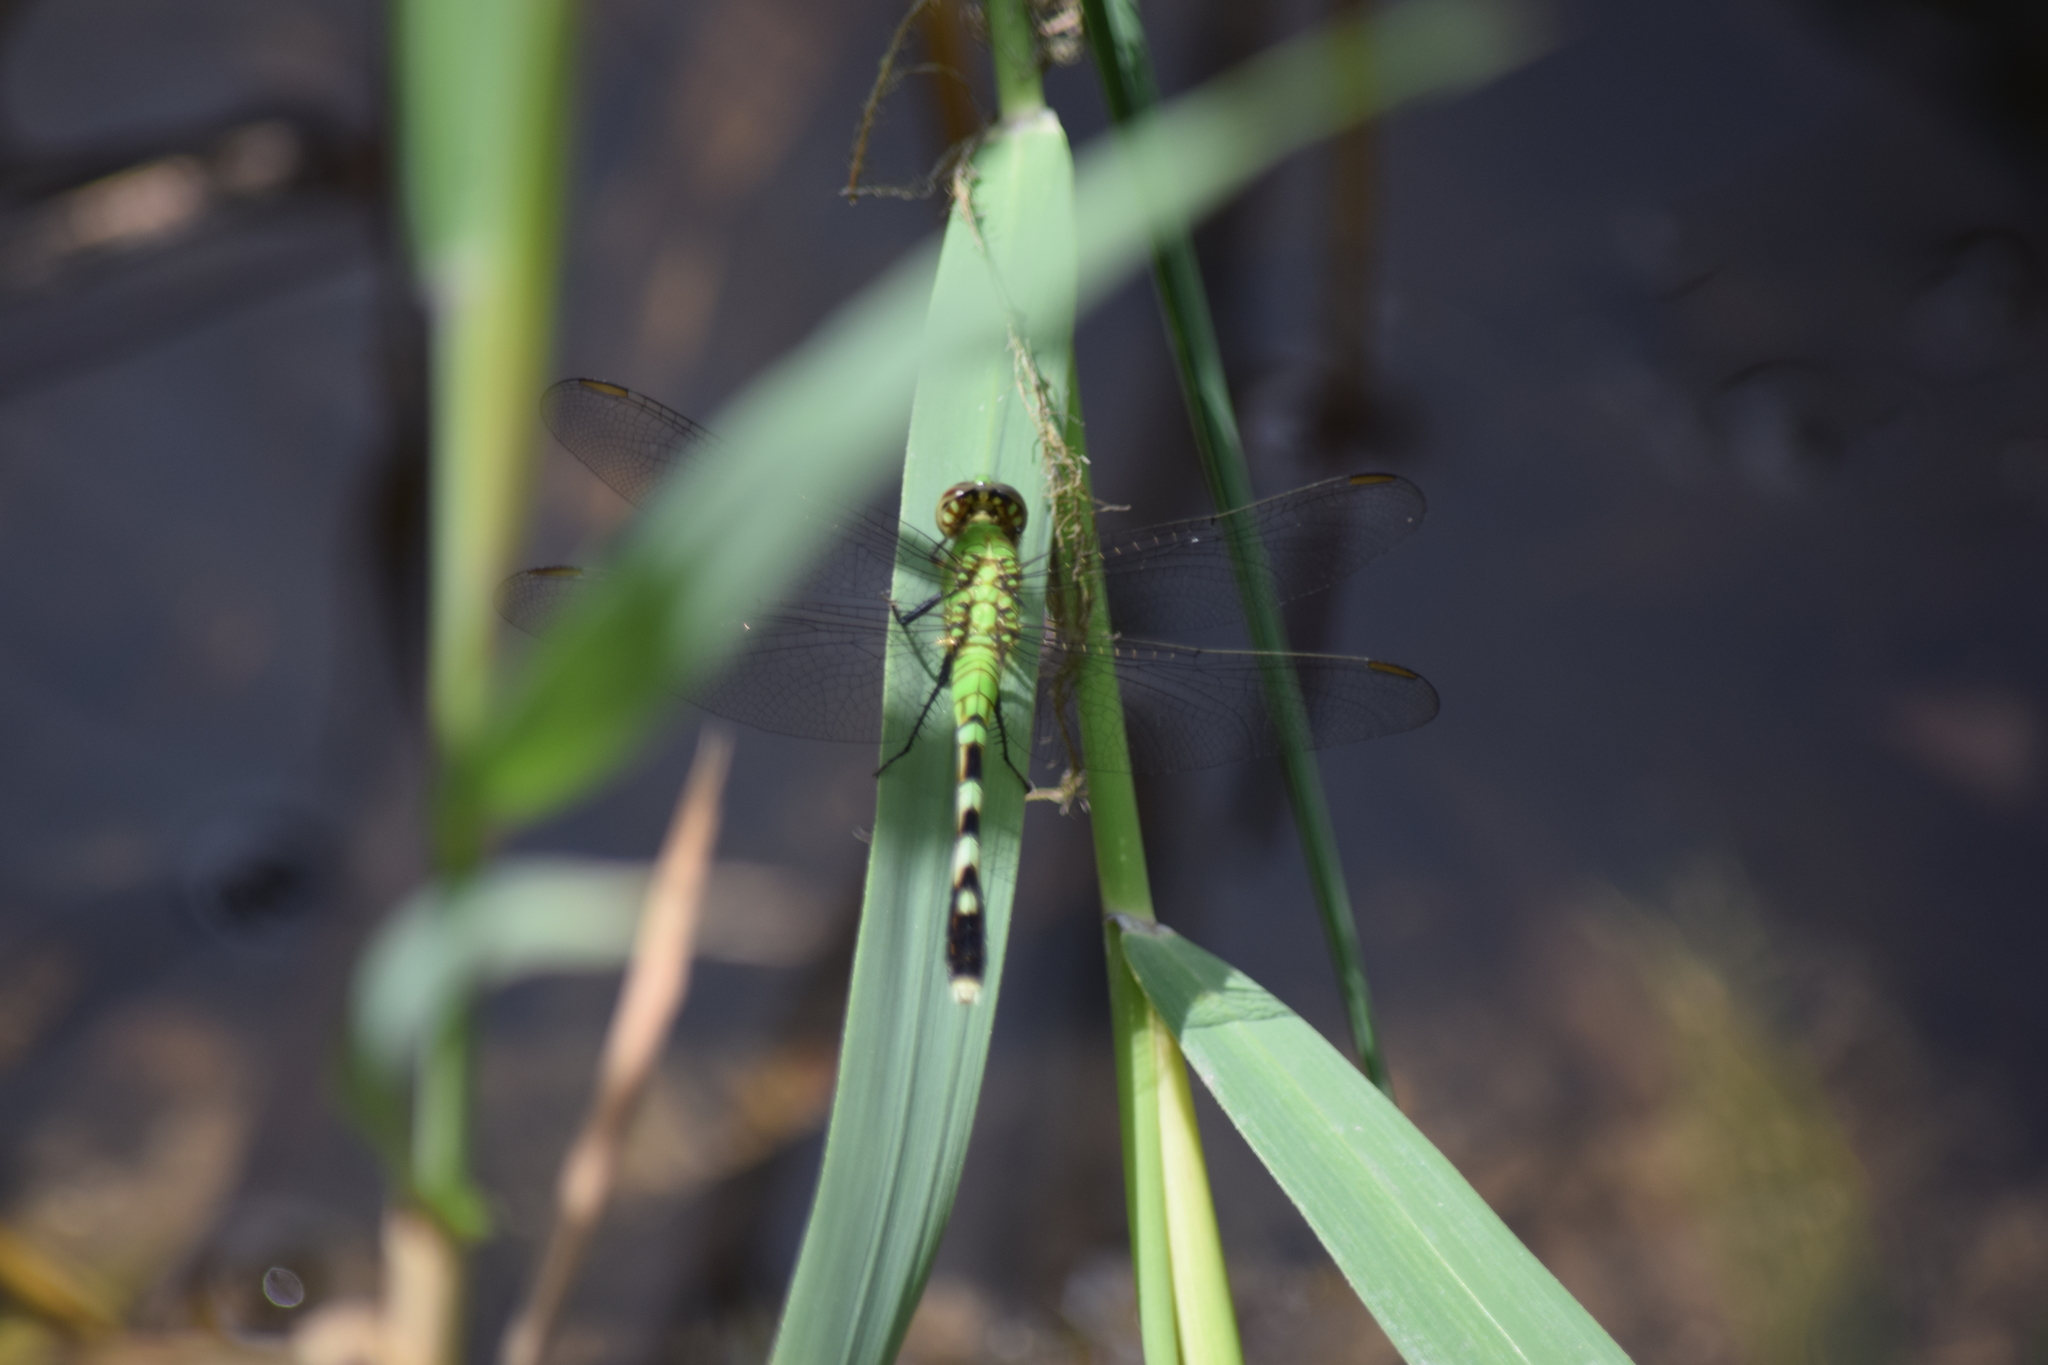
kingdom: Animalia
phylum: Arthropoda
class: Insecta
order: Odonata
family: Libellulidae
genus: Erythemis
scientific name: Erythemis simplicicollis
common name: Eastern pondhawk
